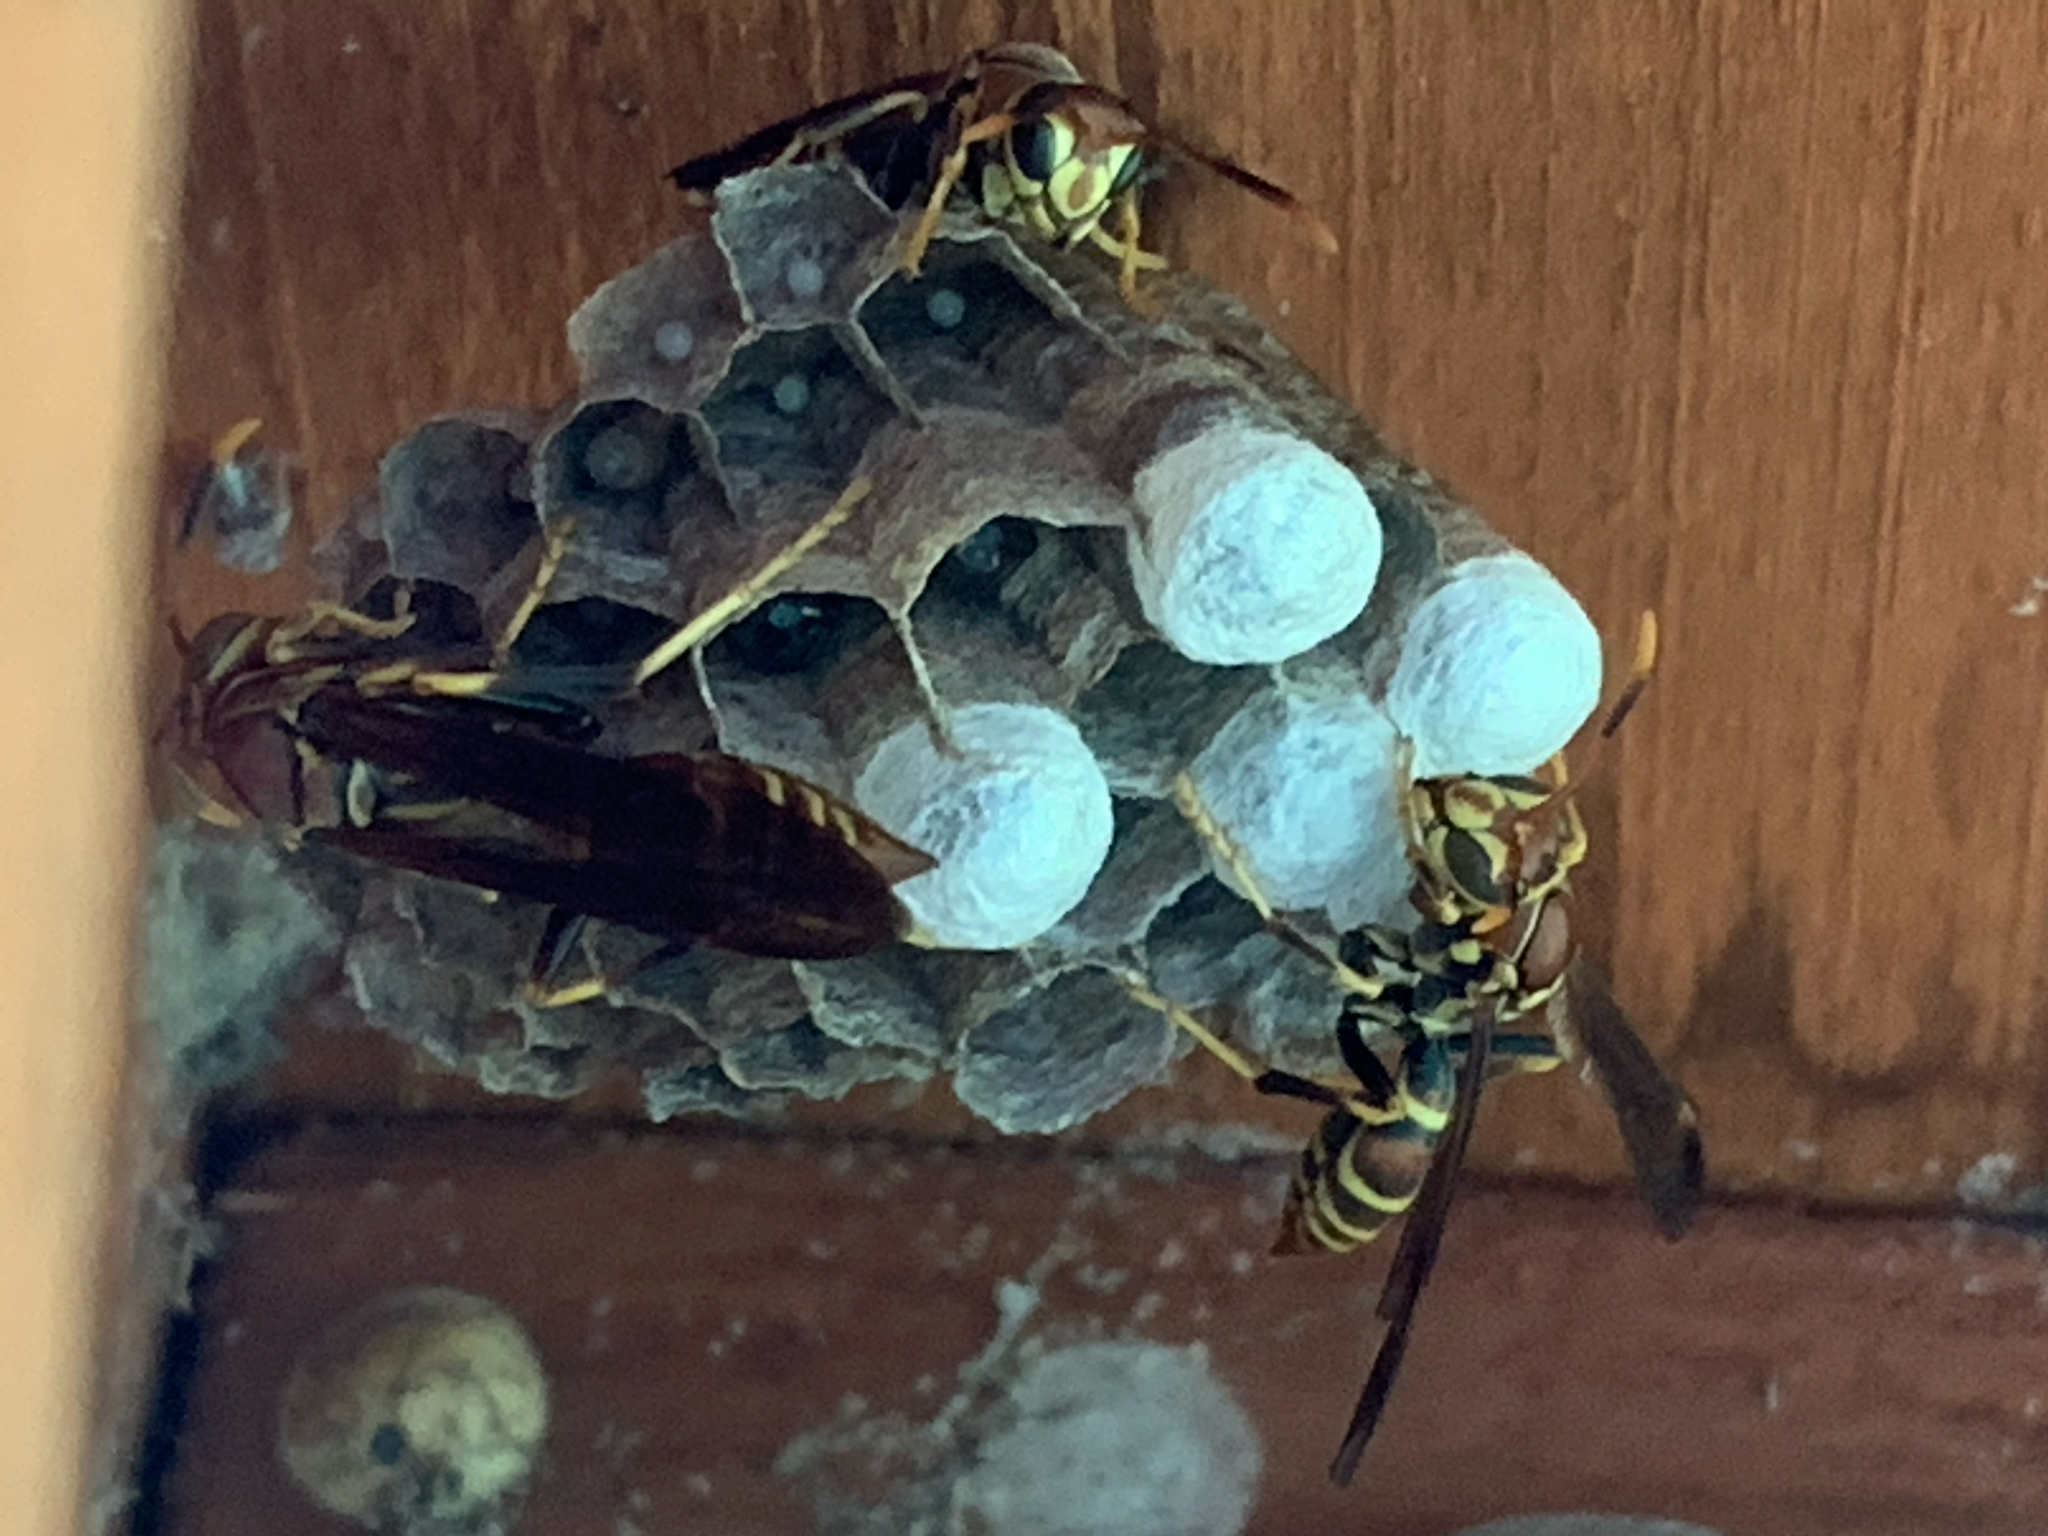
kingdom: Animalia
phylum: Arthropoda
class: Insecta
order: Hymenoptera
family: Eumenidae
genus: Polistes
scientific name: Polistes exclamans
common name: Paper wasp
